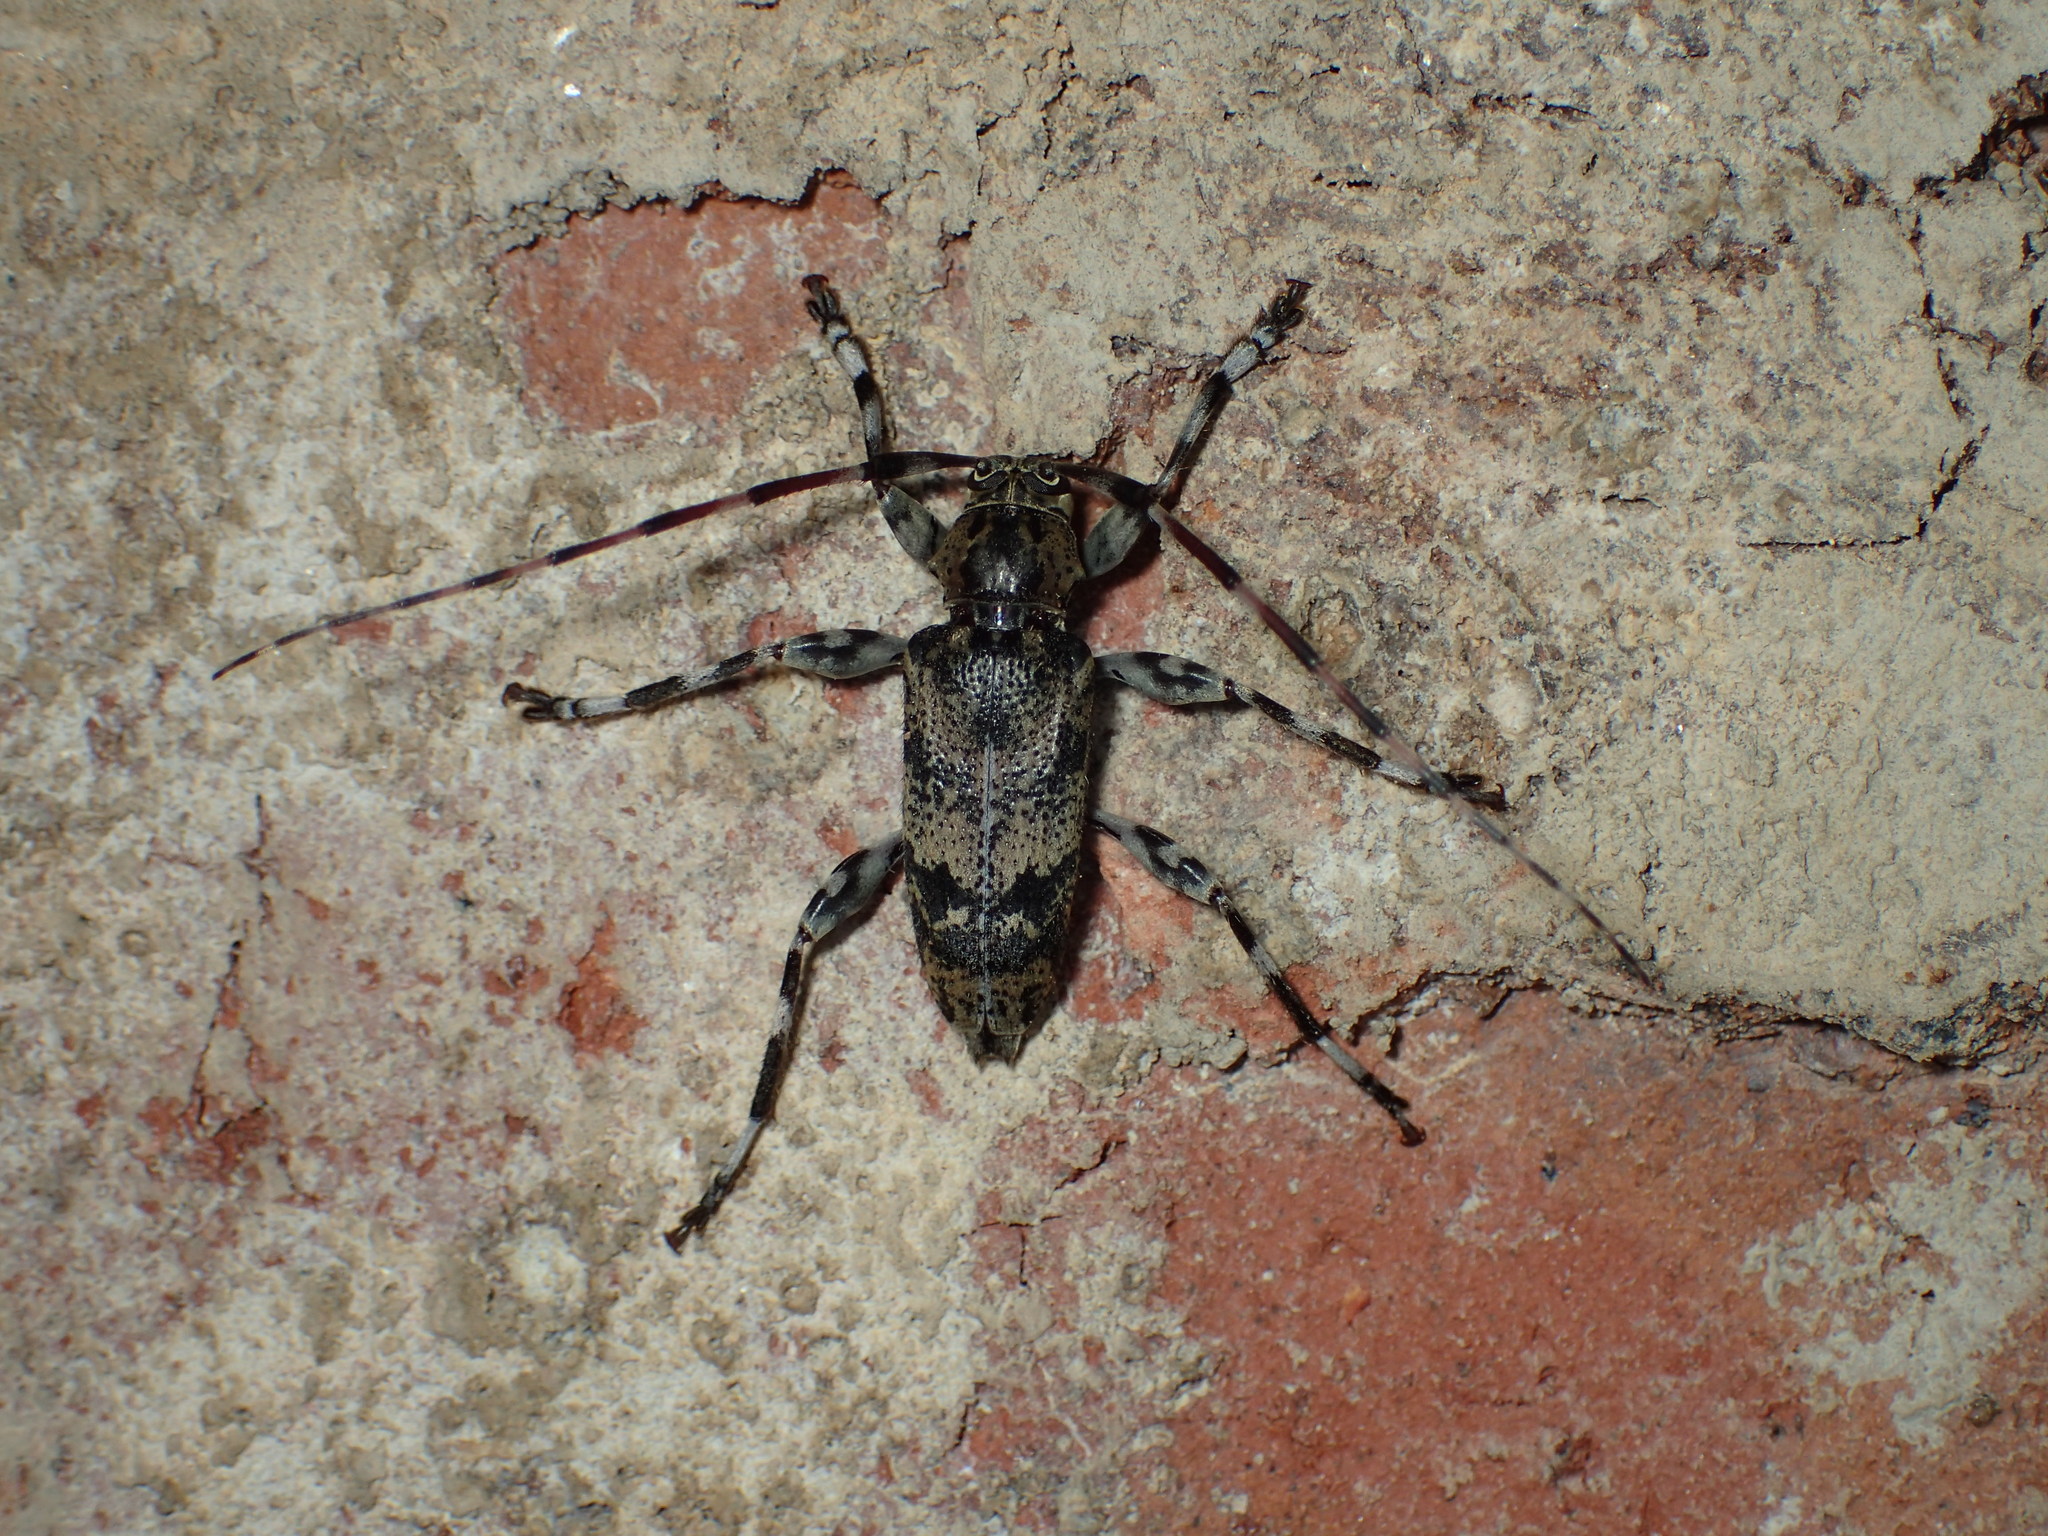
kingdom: Animalia
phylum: Arthropoda
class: Insecta
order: Coleoptera
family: Cerambycidae
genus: Graphisurus
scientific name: Graphisurus fasciatus
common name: Banded graphisurus
